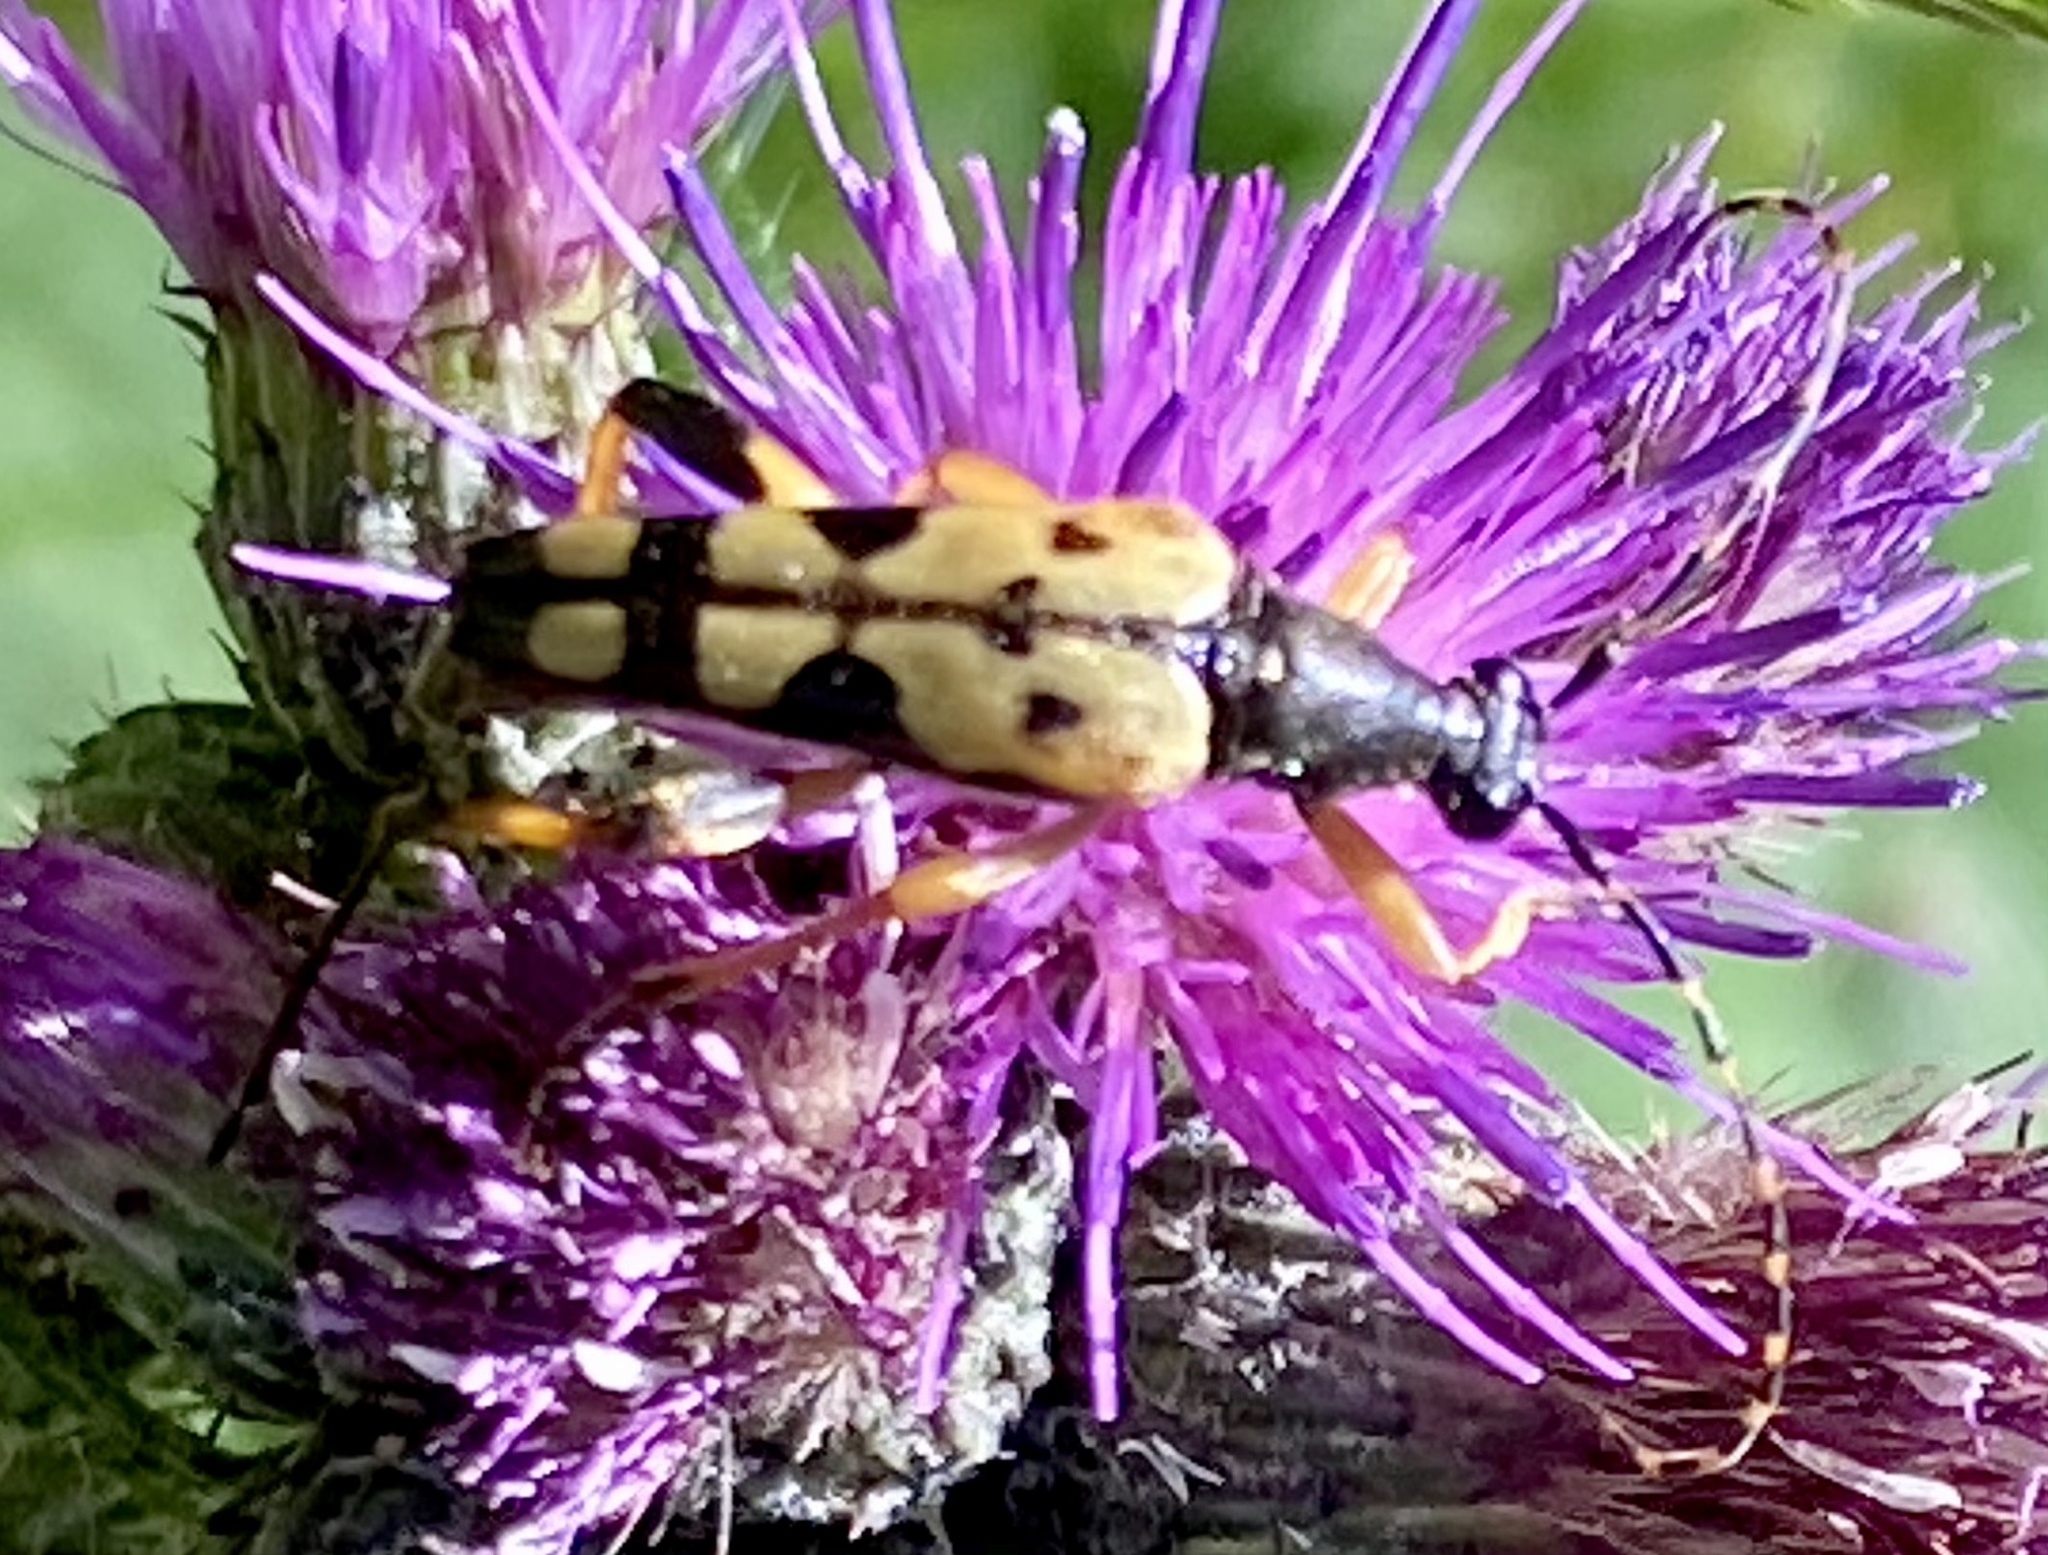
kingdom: Animalia
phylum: Arthropoda
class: Insecta
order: Coleoptera
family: Cerambycidae
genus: Rutpela
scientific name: Rutpela maculata
